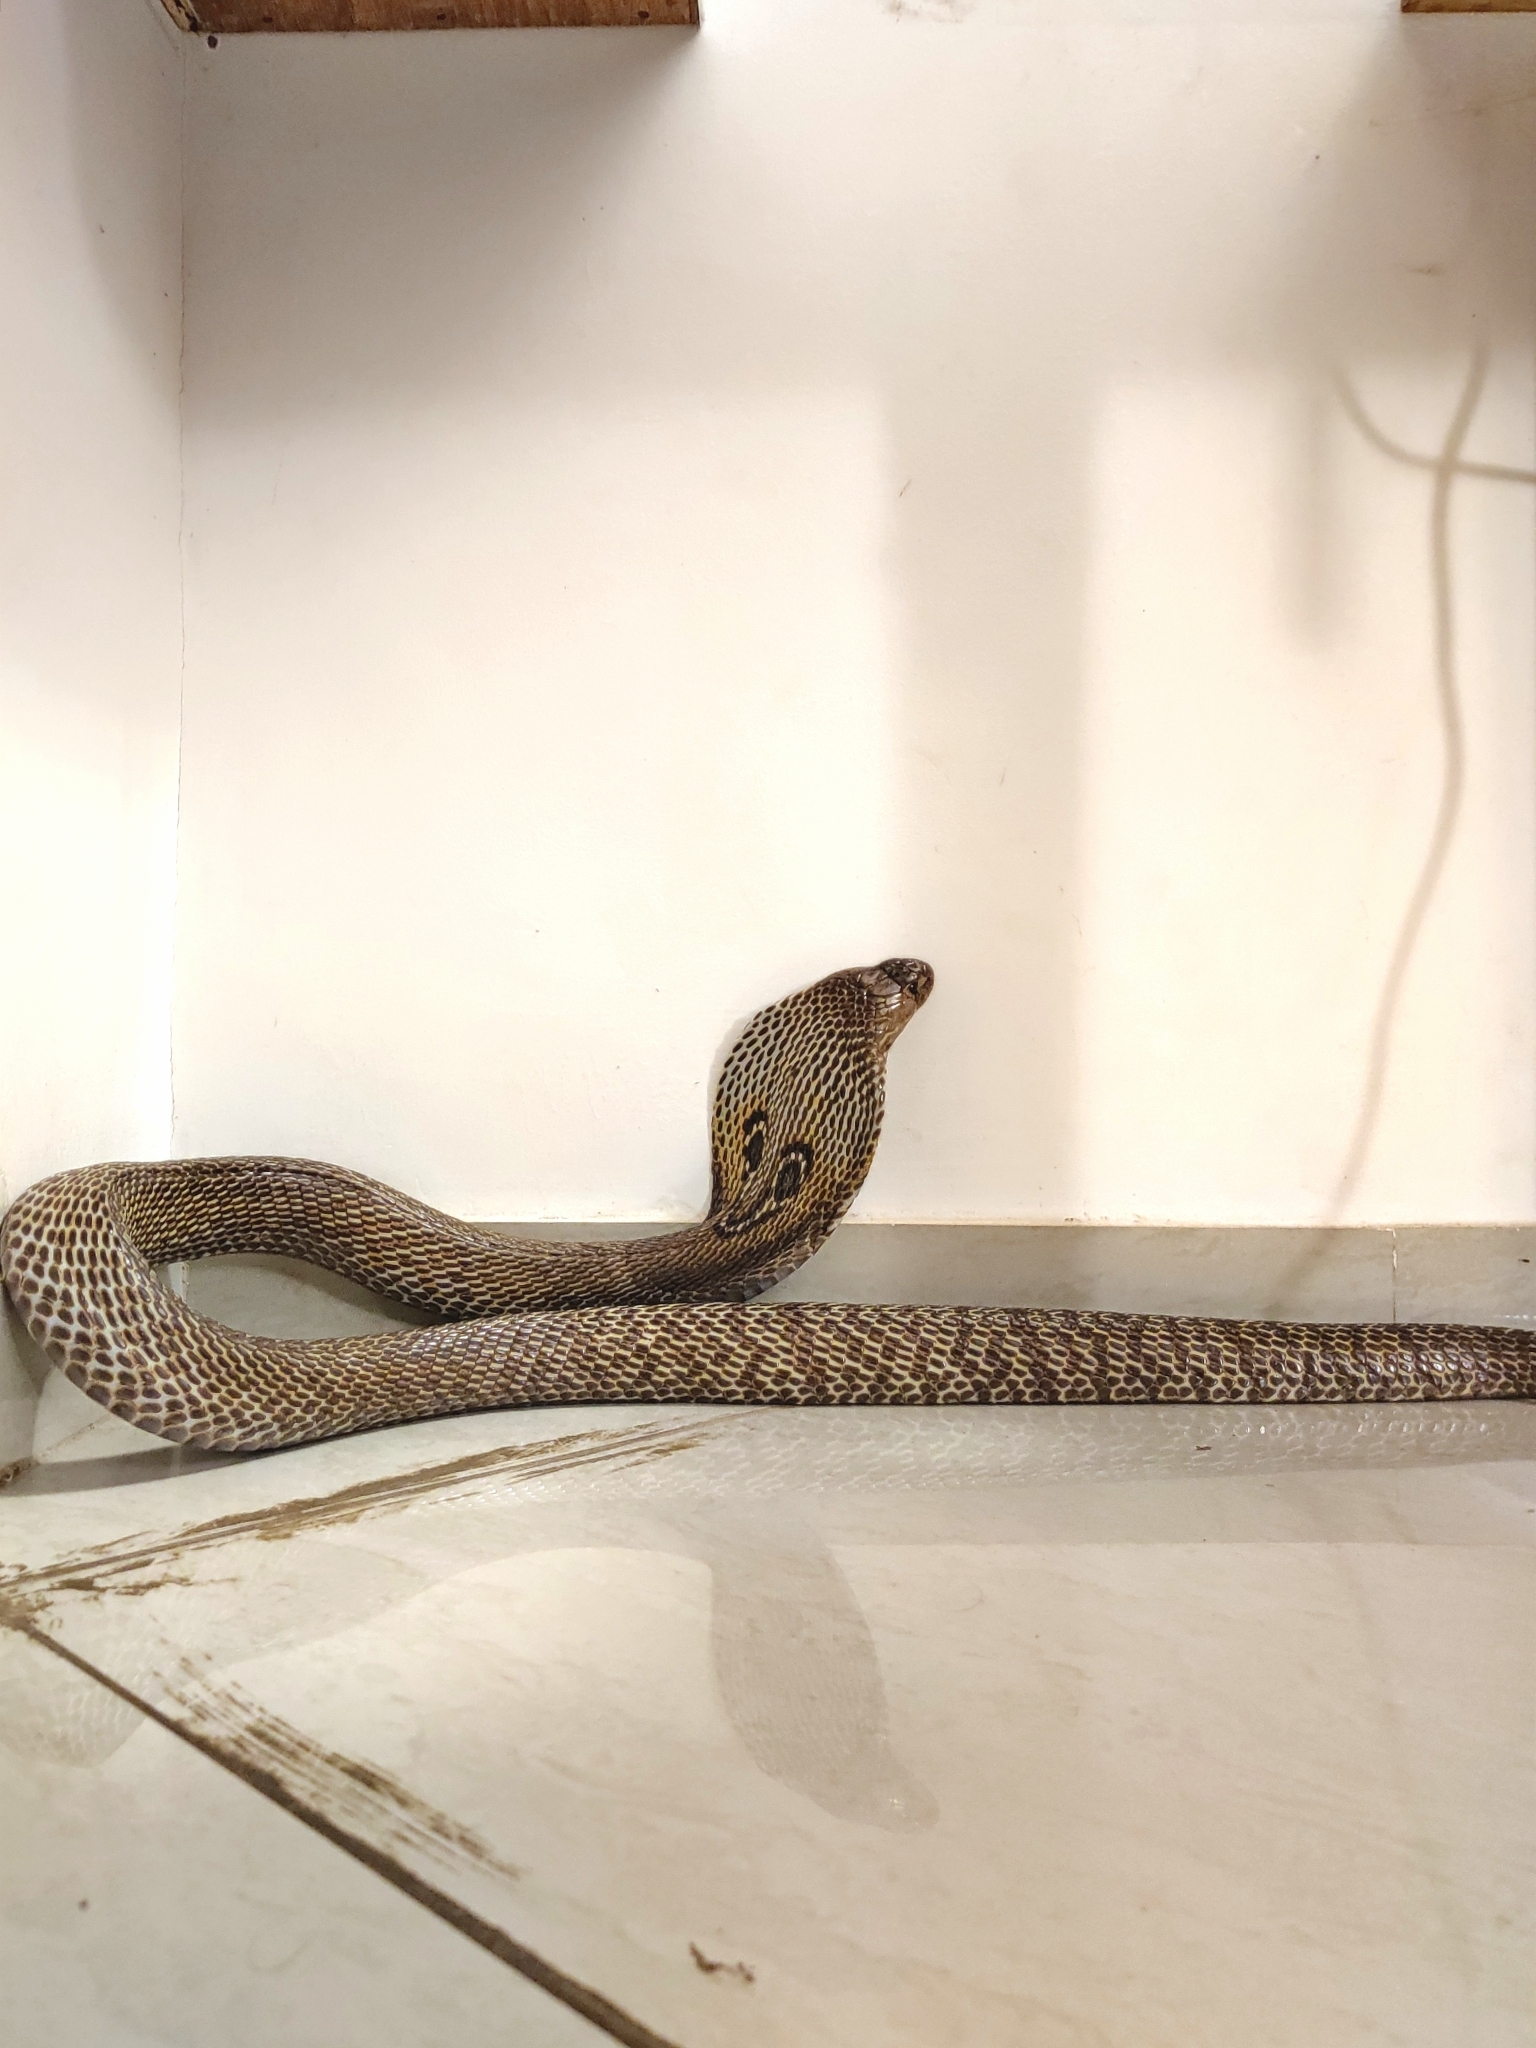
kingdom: Animalia
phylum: Chordata
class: Squamata
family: Elapidae
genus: Naja
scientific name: Naja naja
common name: Indian cobra
